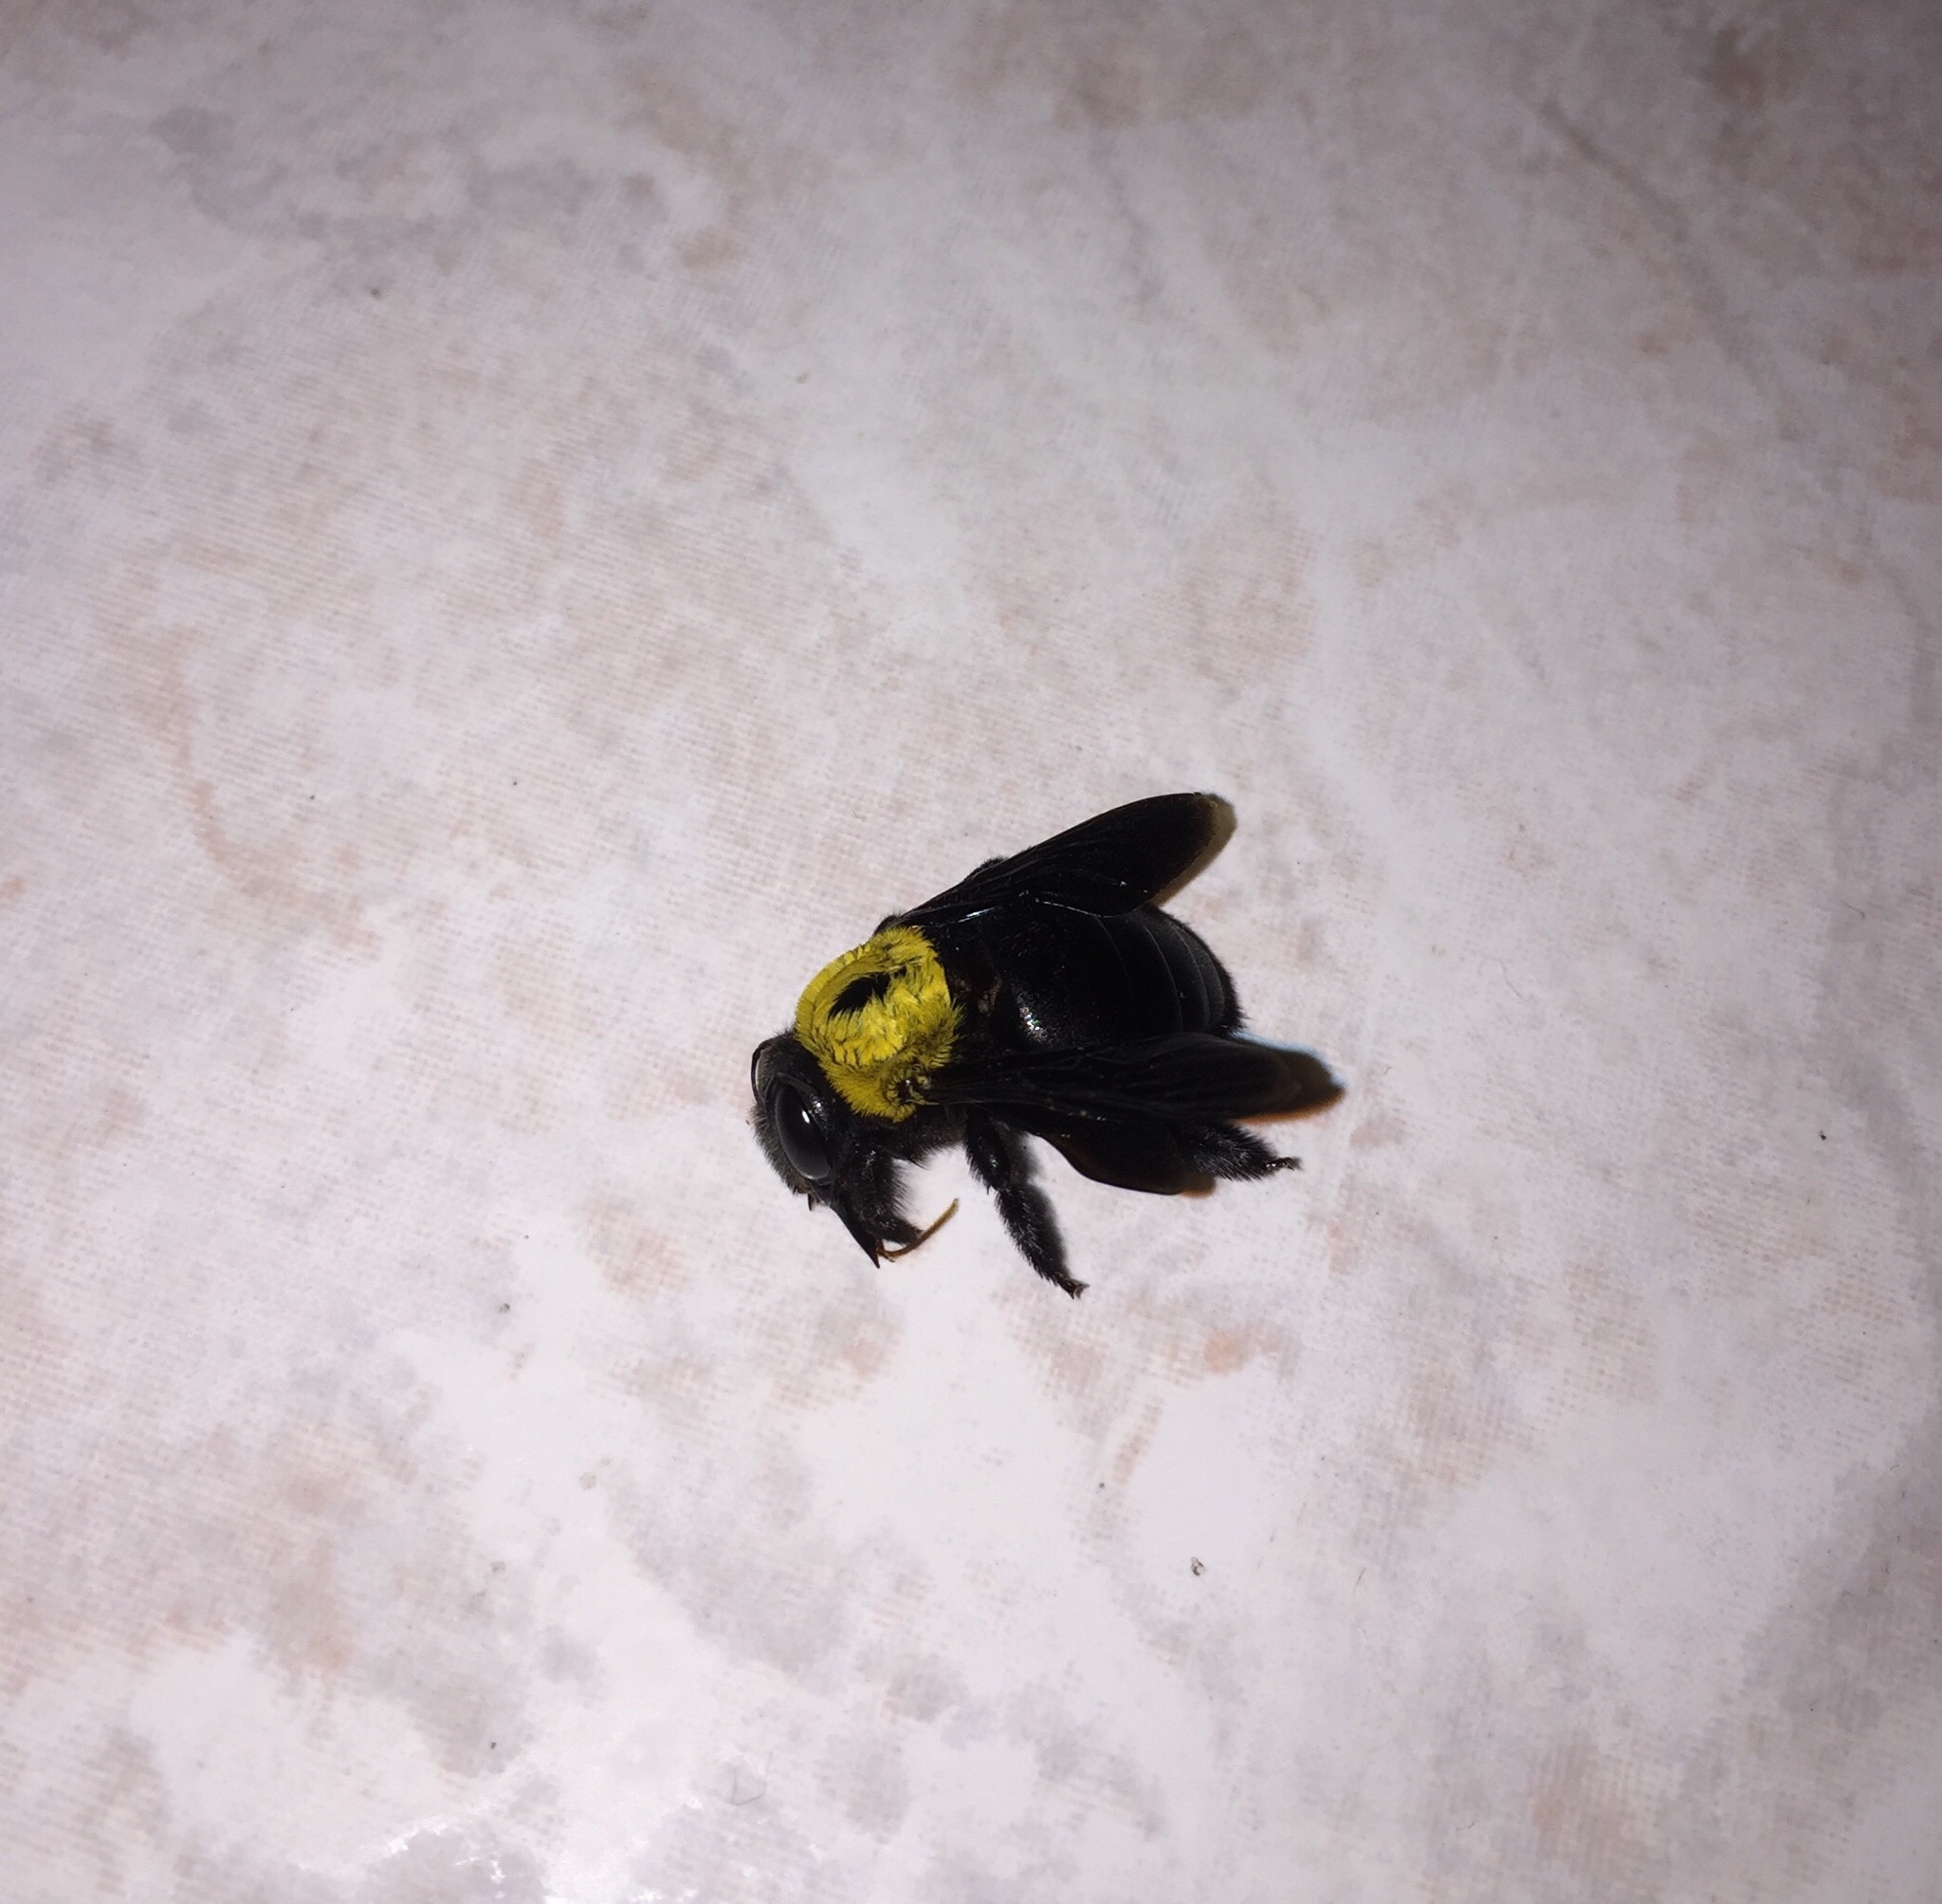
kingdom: Animalia
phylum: Arthropoda
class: Insecta
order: Hymenoptera
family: Apidae
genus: Xylocopa
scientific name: Xylocopa pubescens
